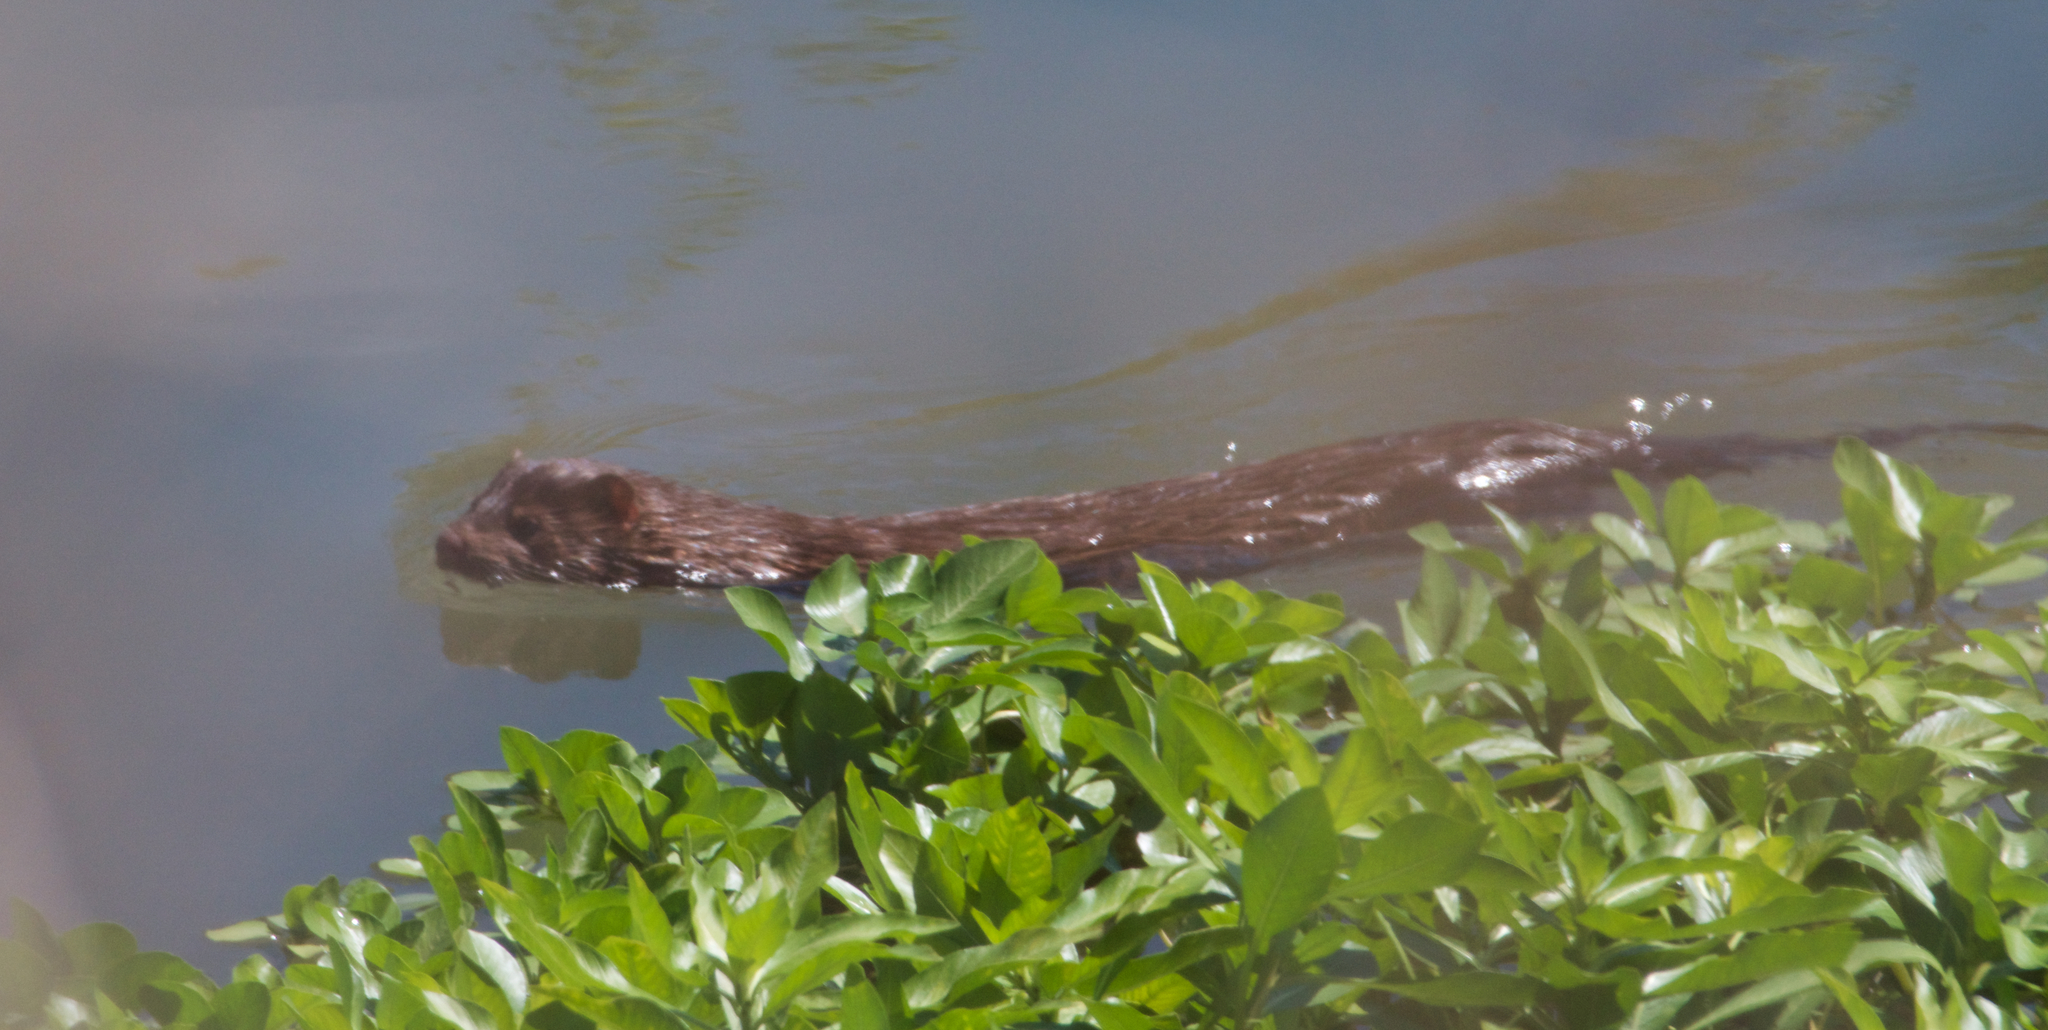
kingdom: Animalia
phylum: Chordata
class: Mammalia
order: Carnivora
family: Mustelidae
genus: Mustela
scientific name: Mustela
